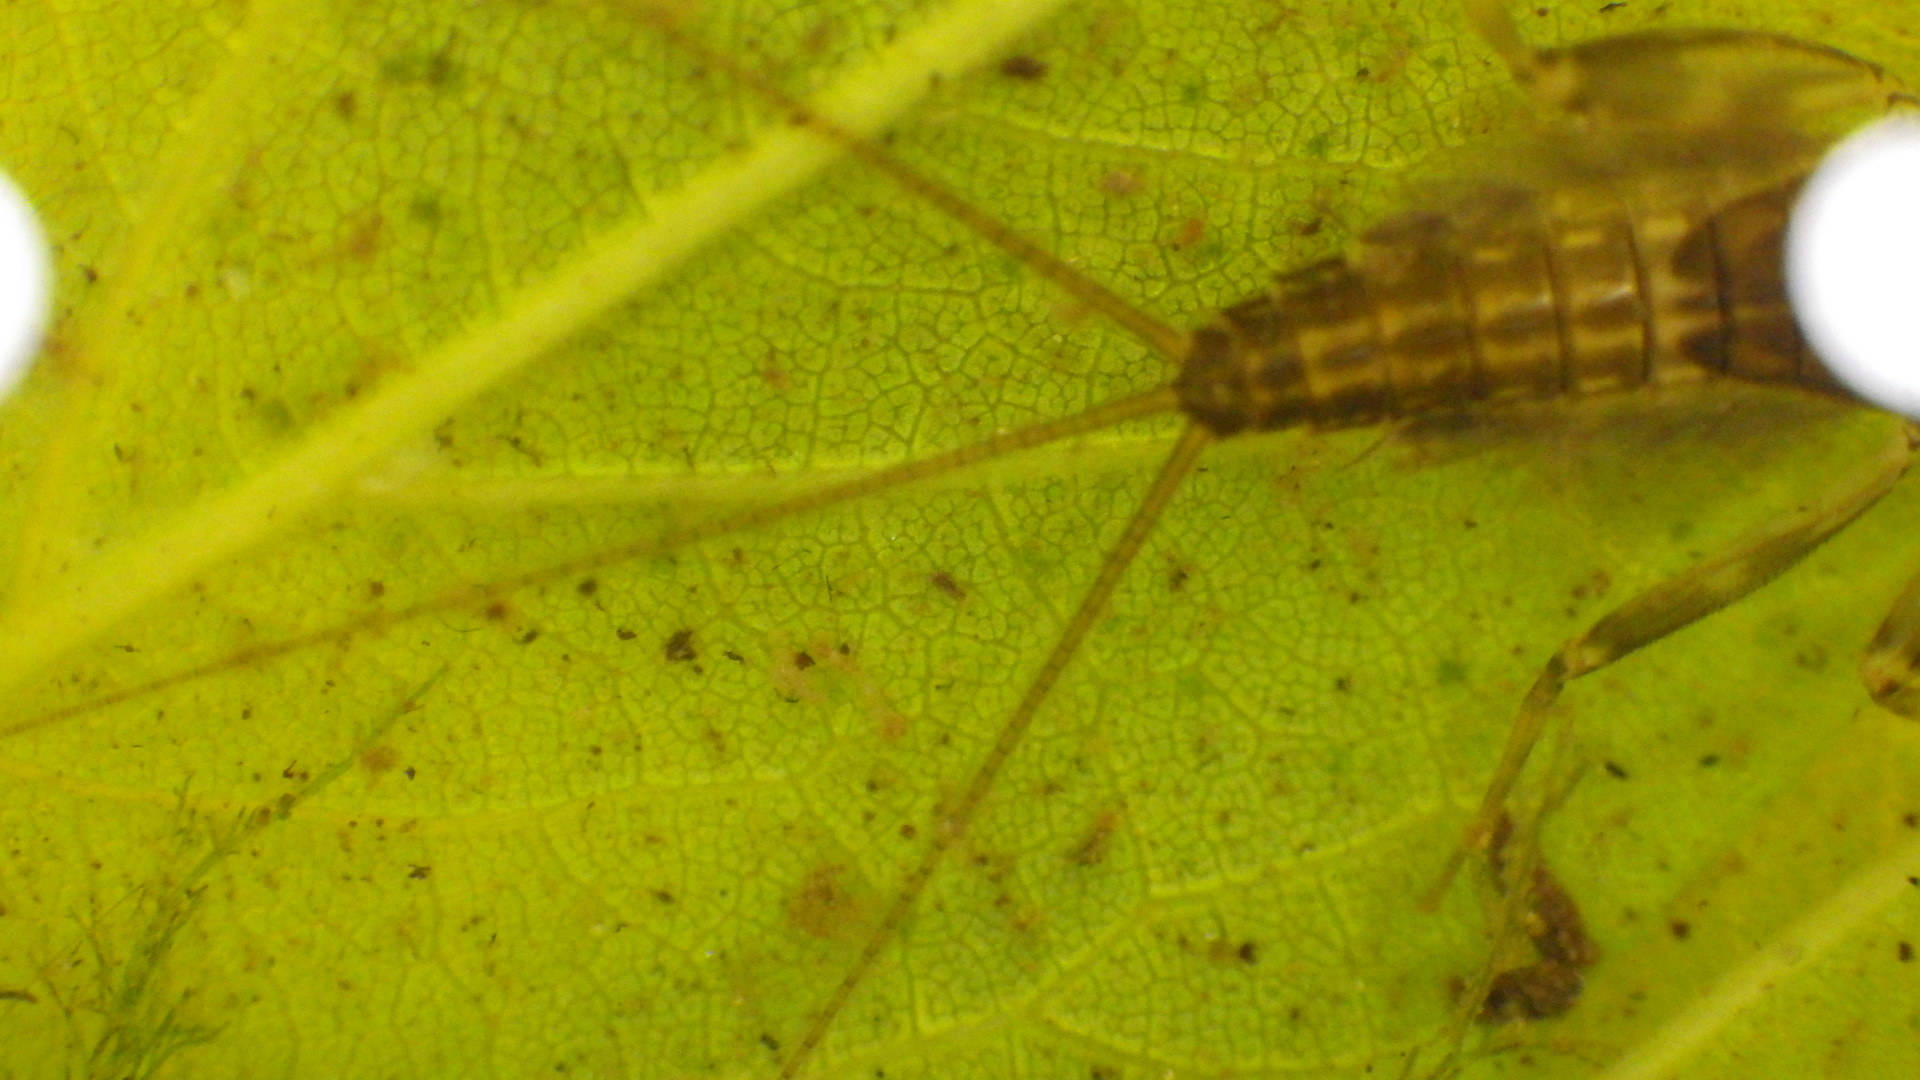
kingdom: Animalia
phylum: Arthropoda
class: Insecta
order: Ephemeroptera
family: Heptageniidae
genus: Stenacron
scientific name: Stenacron interpunctatum
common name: Orange cahill
